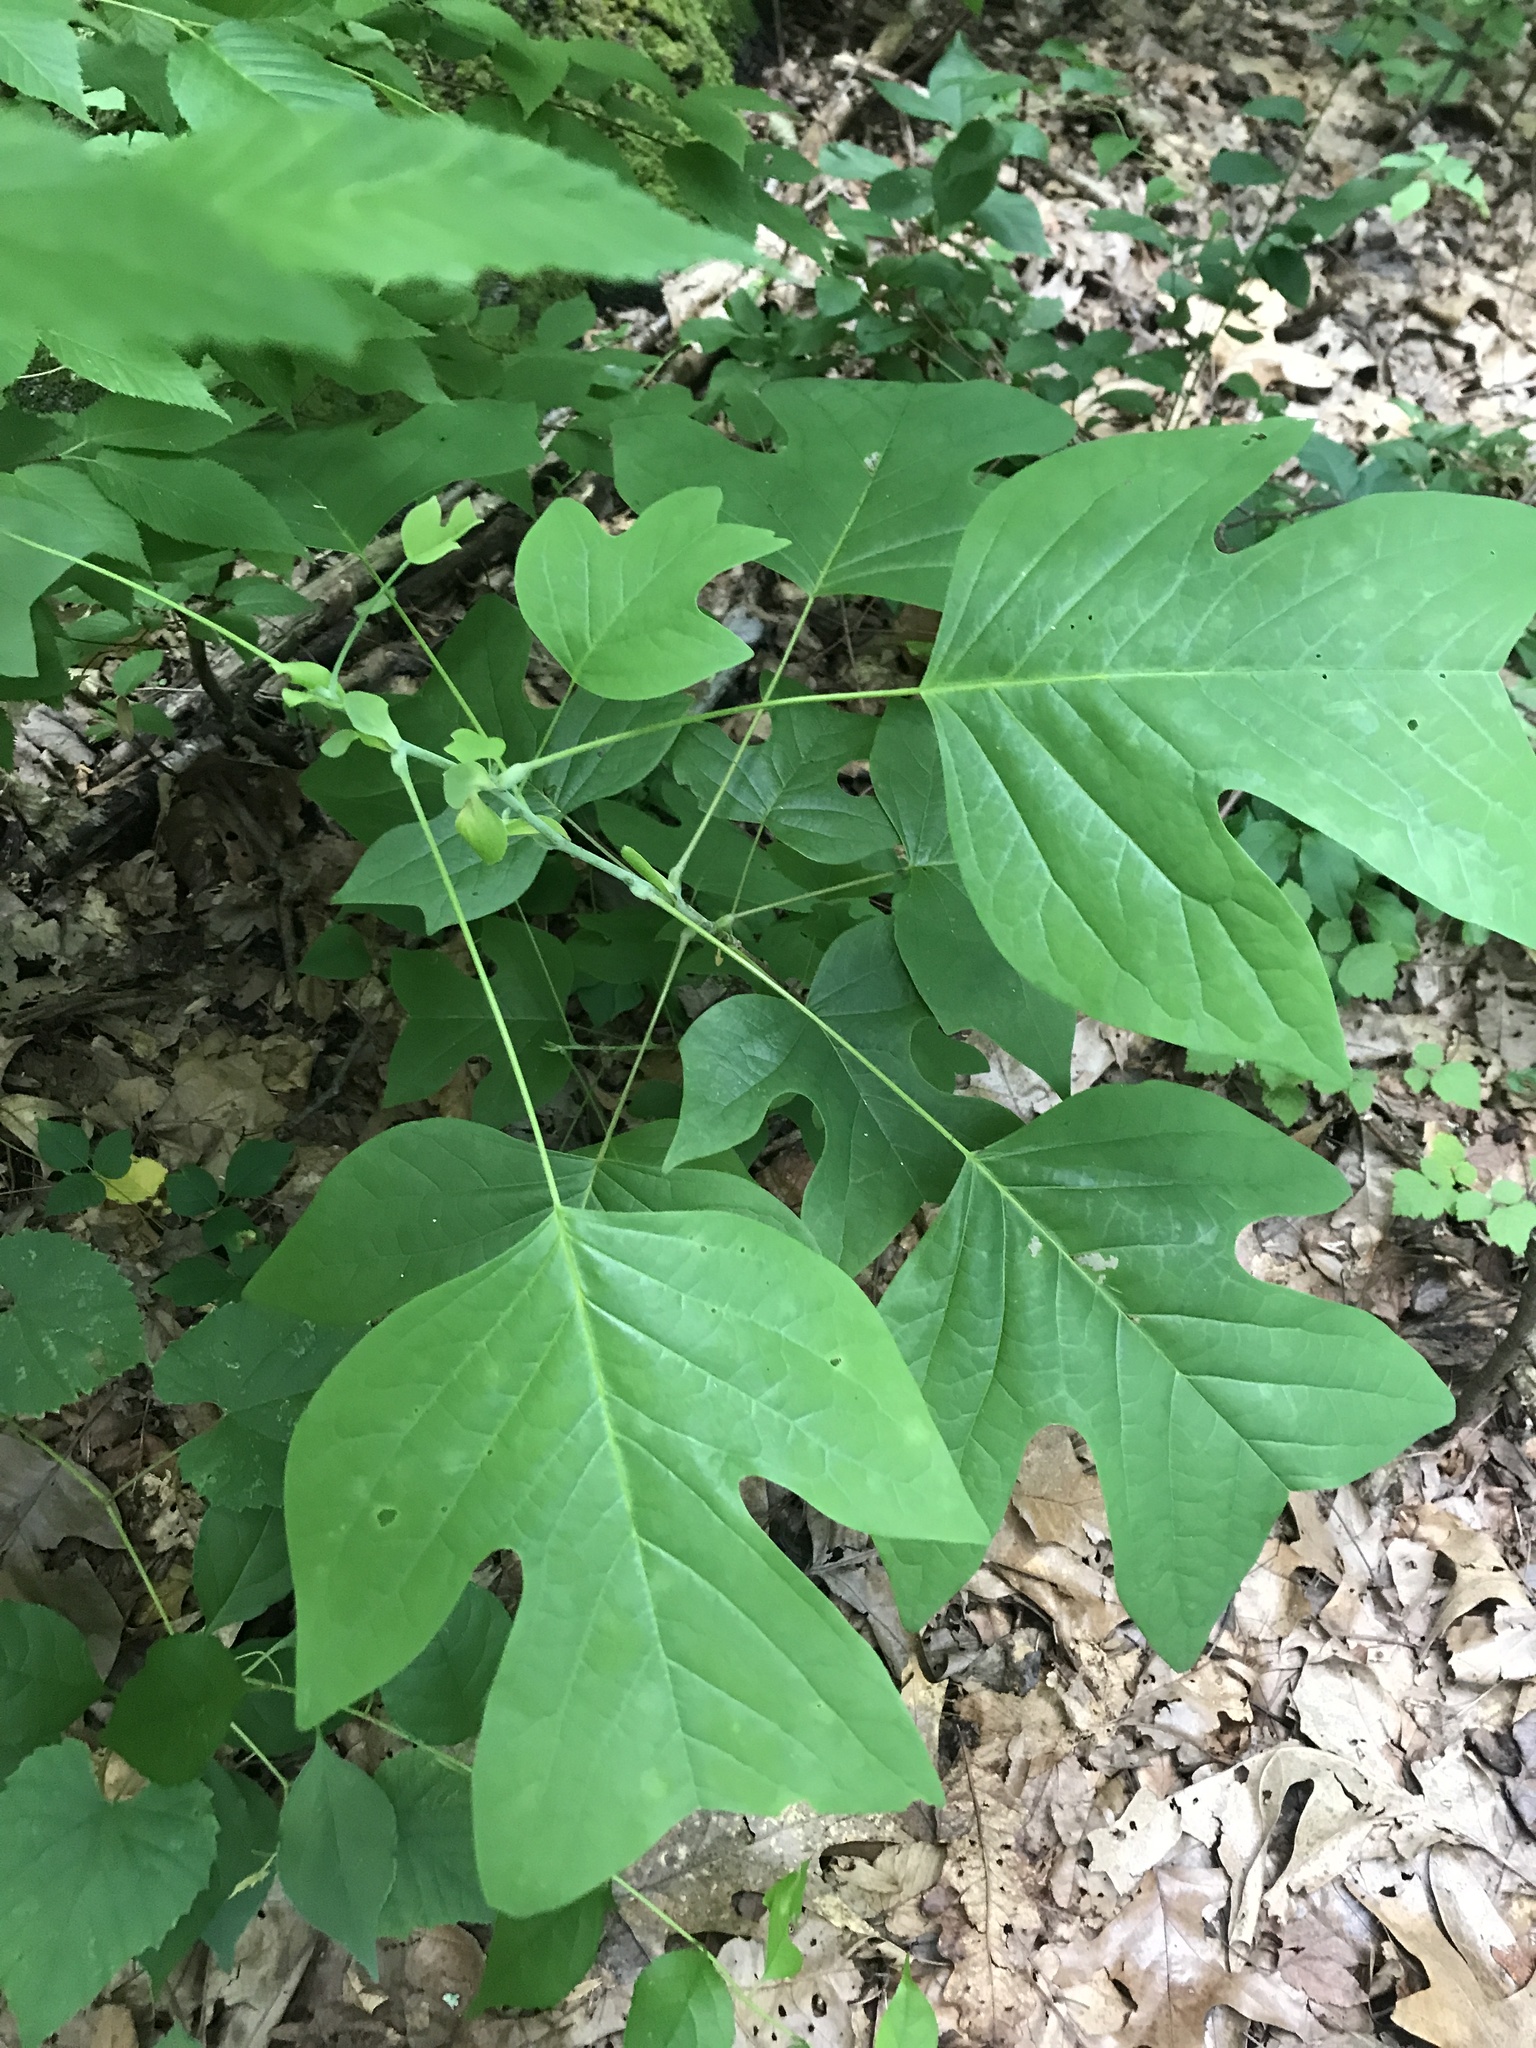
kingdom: Plantae
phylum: Tracheophyta
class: Magnoliopsida
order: Magnoliales
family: Magnoliaceae
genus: Liriodendron
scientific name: Liriodendron tulipifera
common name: Tulip tree
